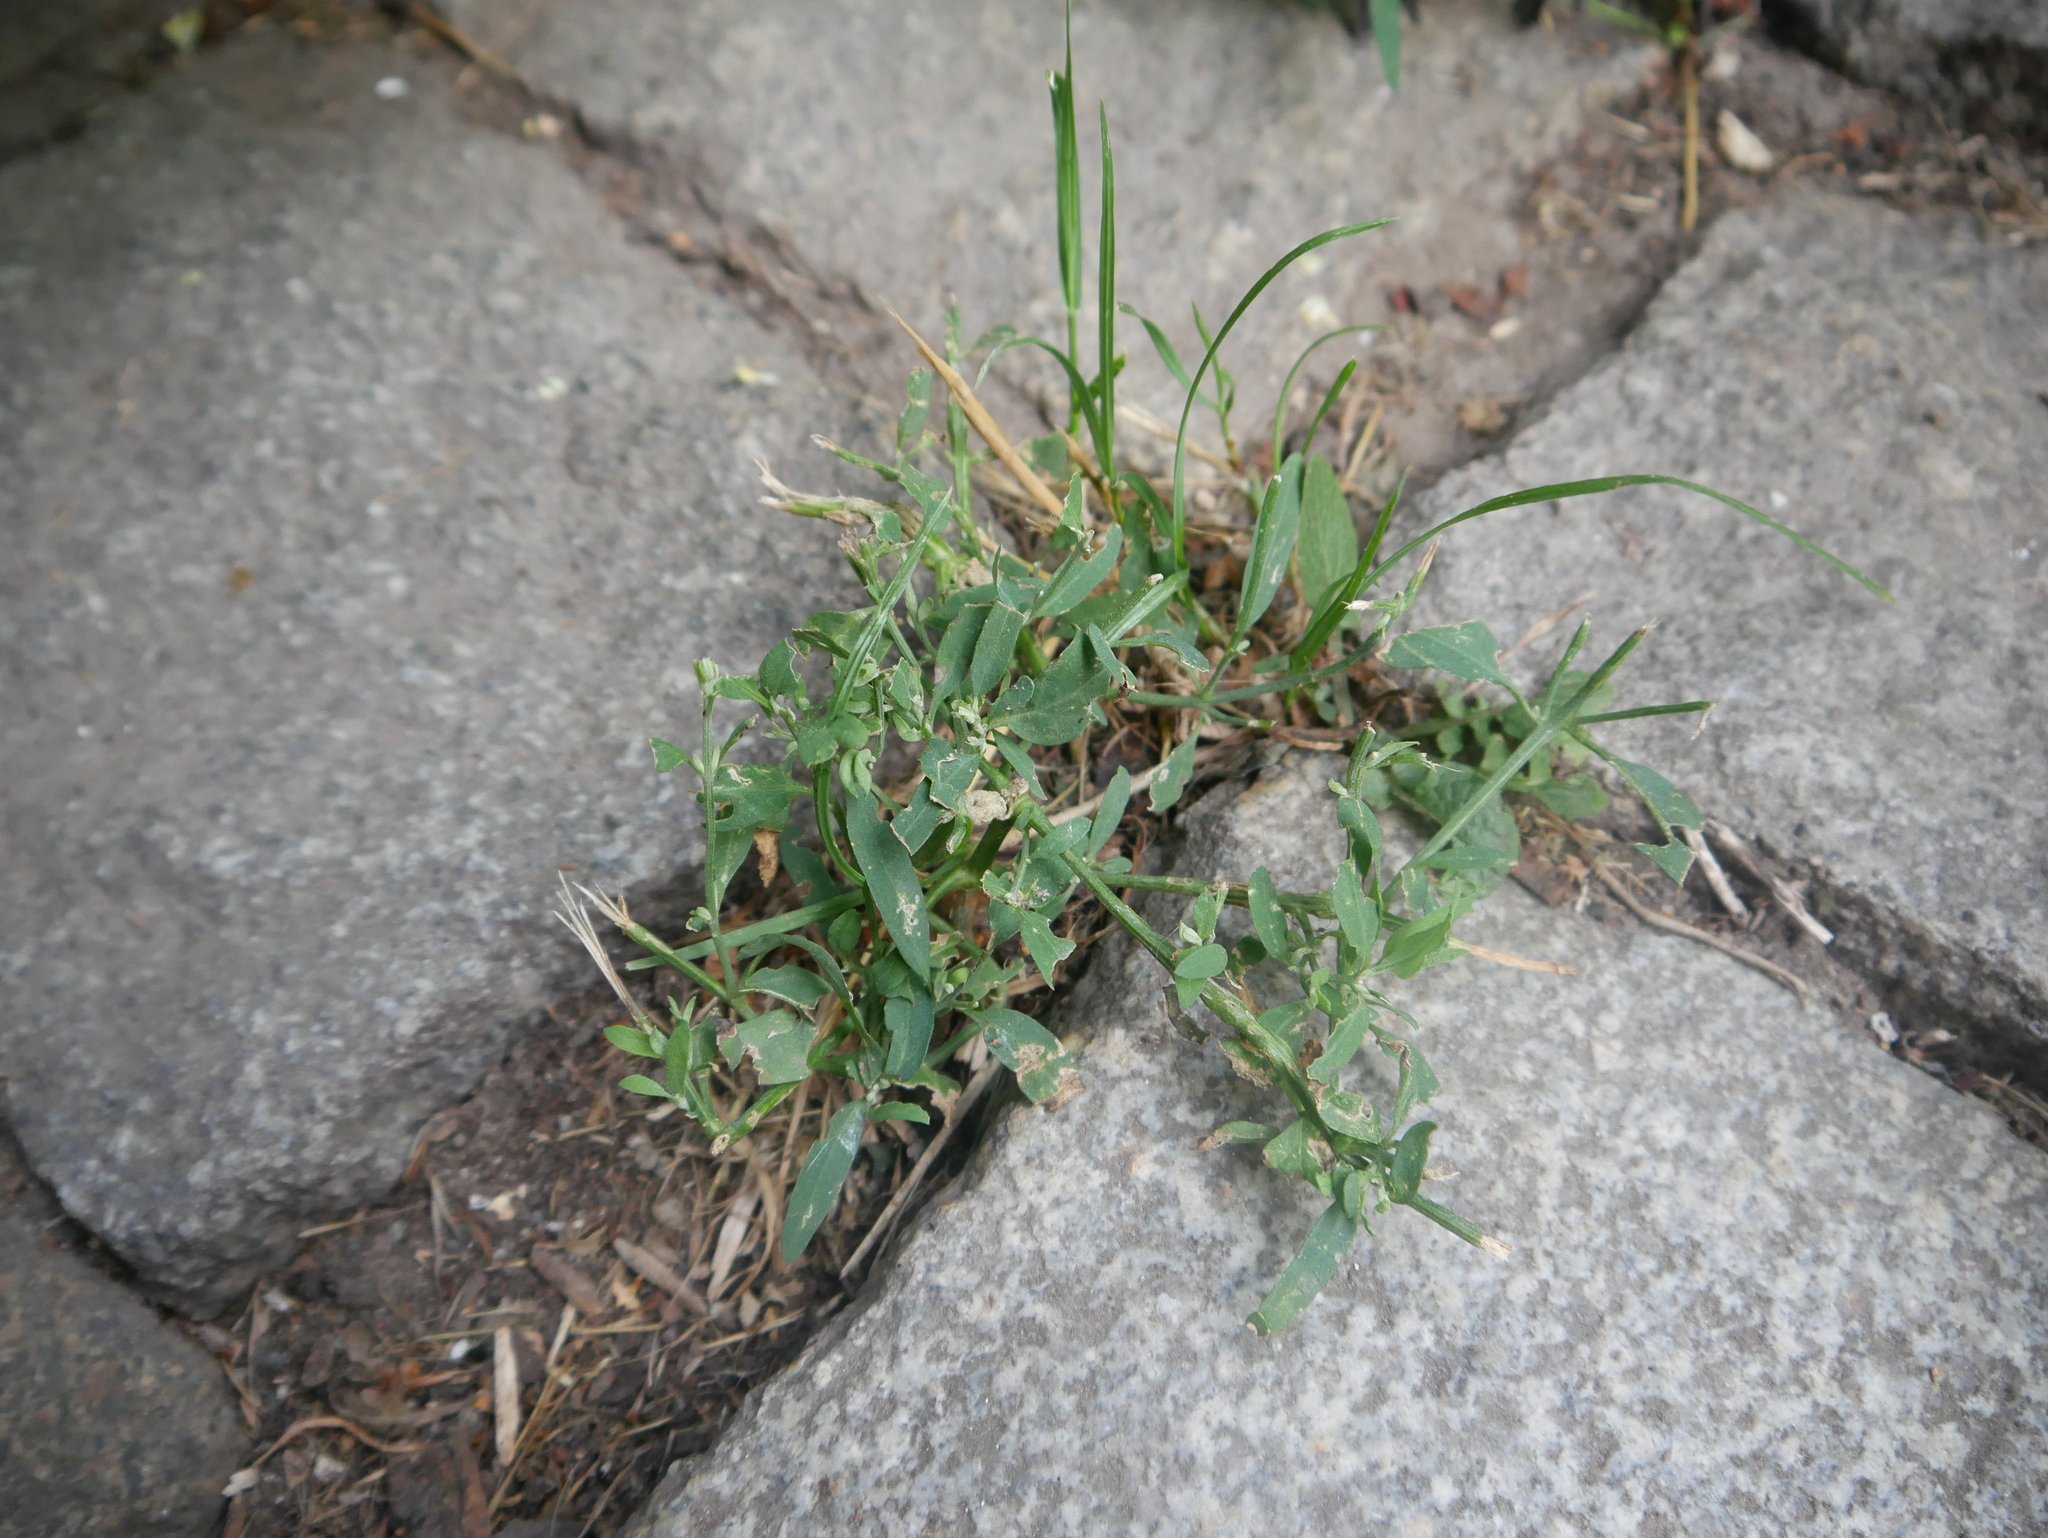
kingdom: Plantae
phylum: Tracheophyta
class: Magnoliopsida
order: Caryophyllales
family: Polygonaceae
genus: Polygonum
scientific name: Polygonum aviculare
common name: Prostrate knotweed
